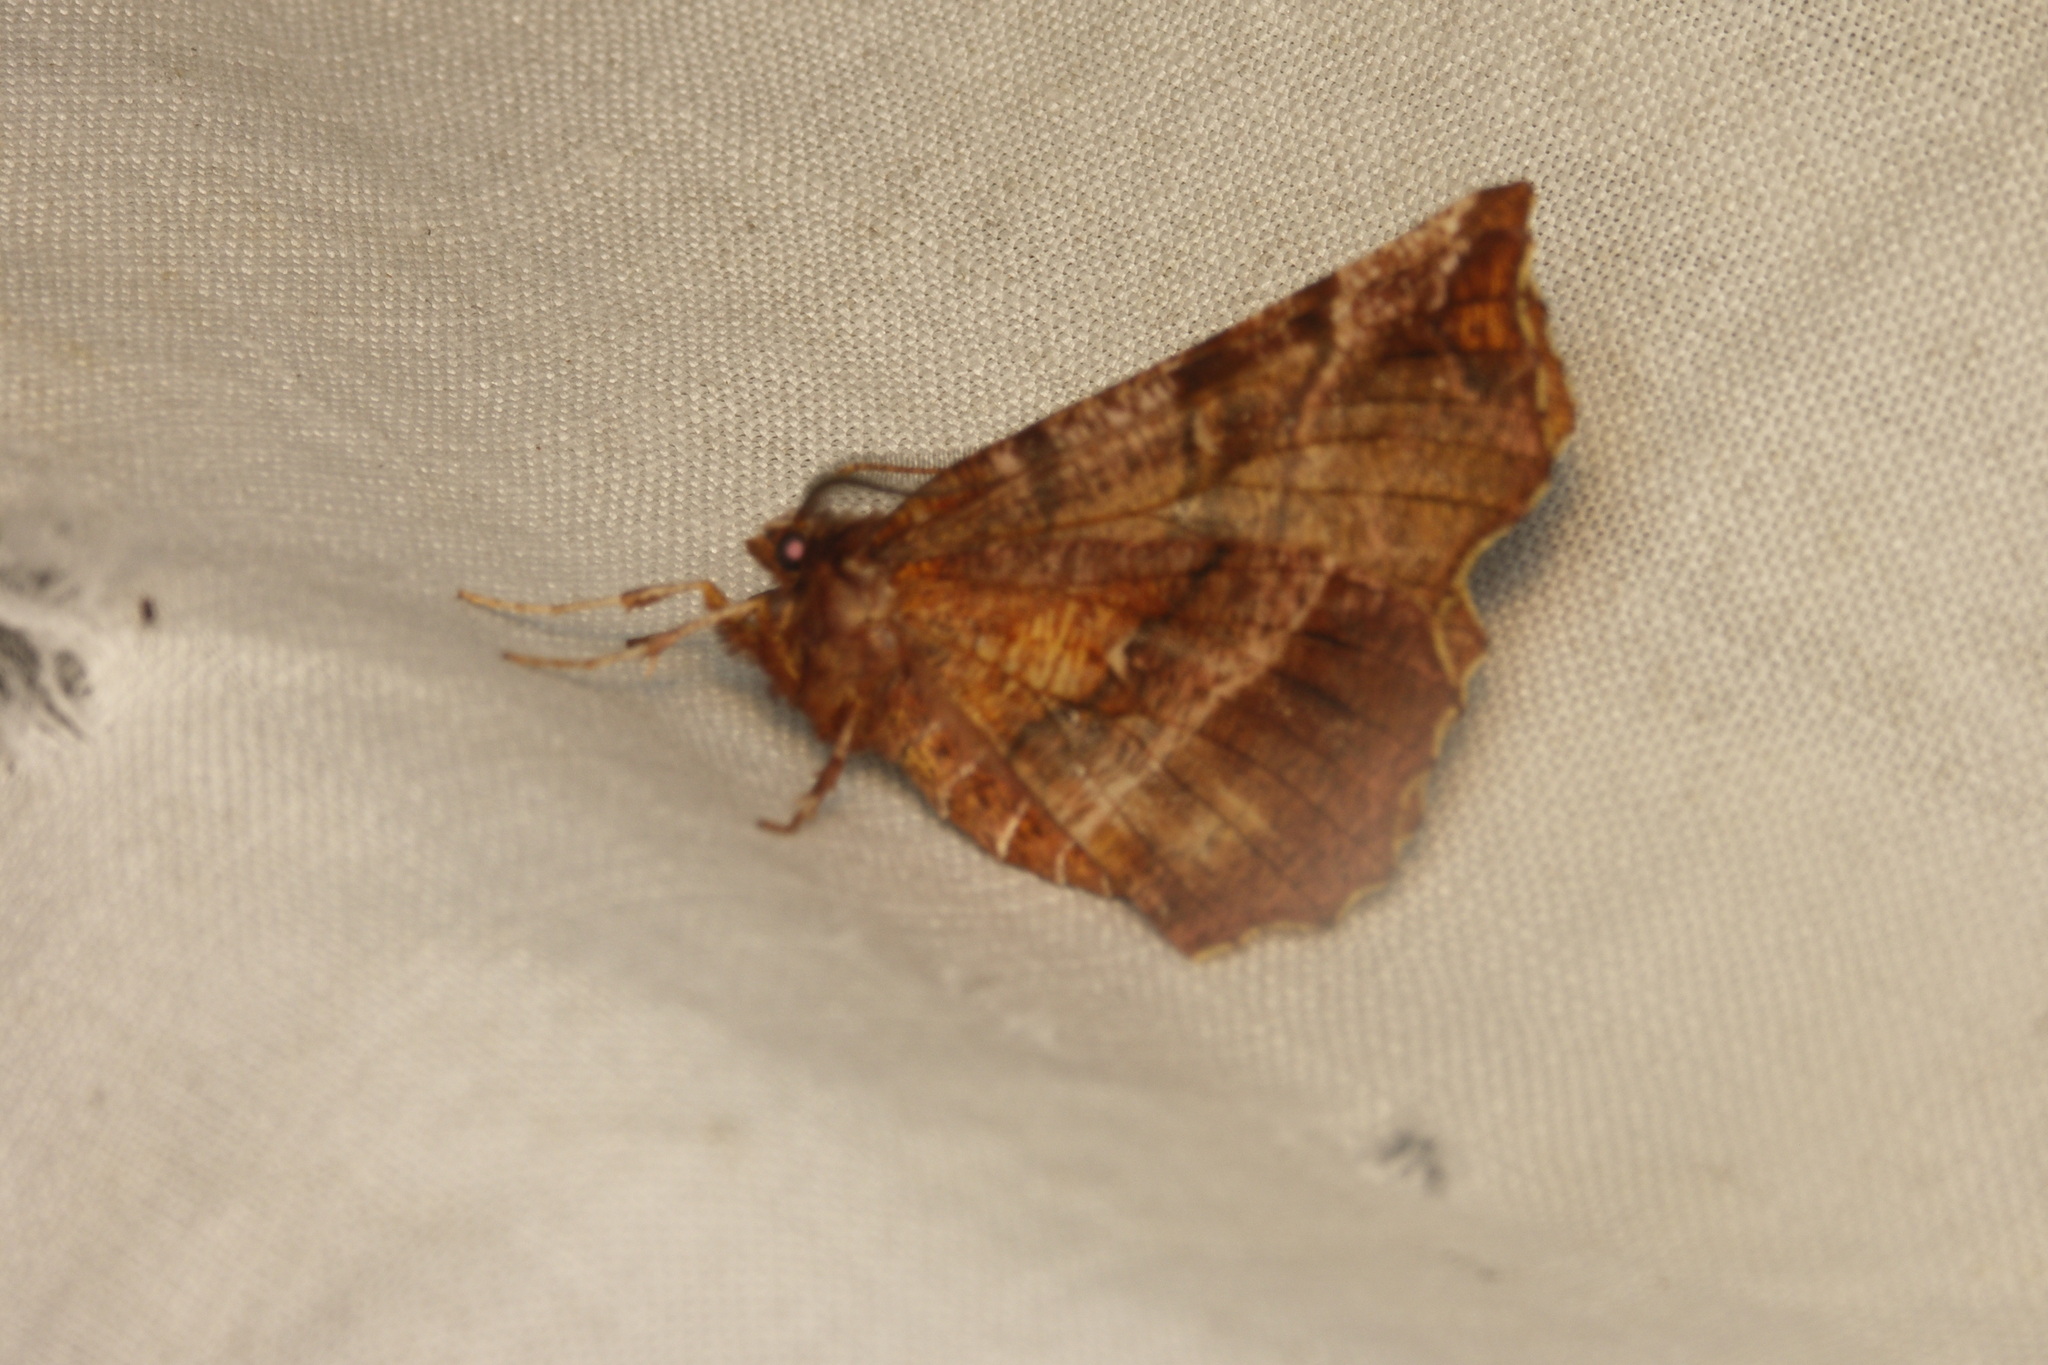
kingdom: Animalia
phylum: Arthropoda
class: Insecta
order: Lepidoptera
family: Geometridae
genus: Selenia
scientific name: Selenia dentaria
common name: Early thorn
